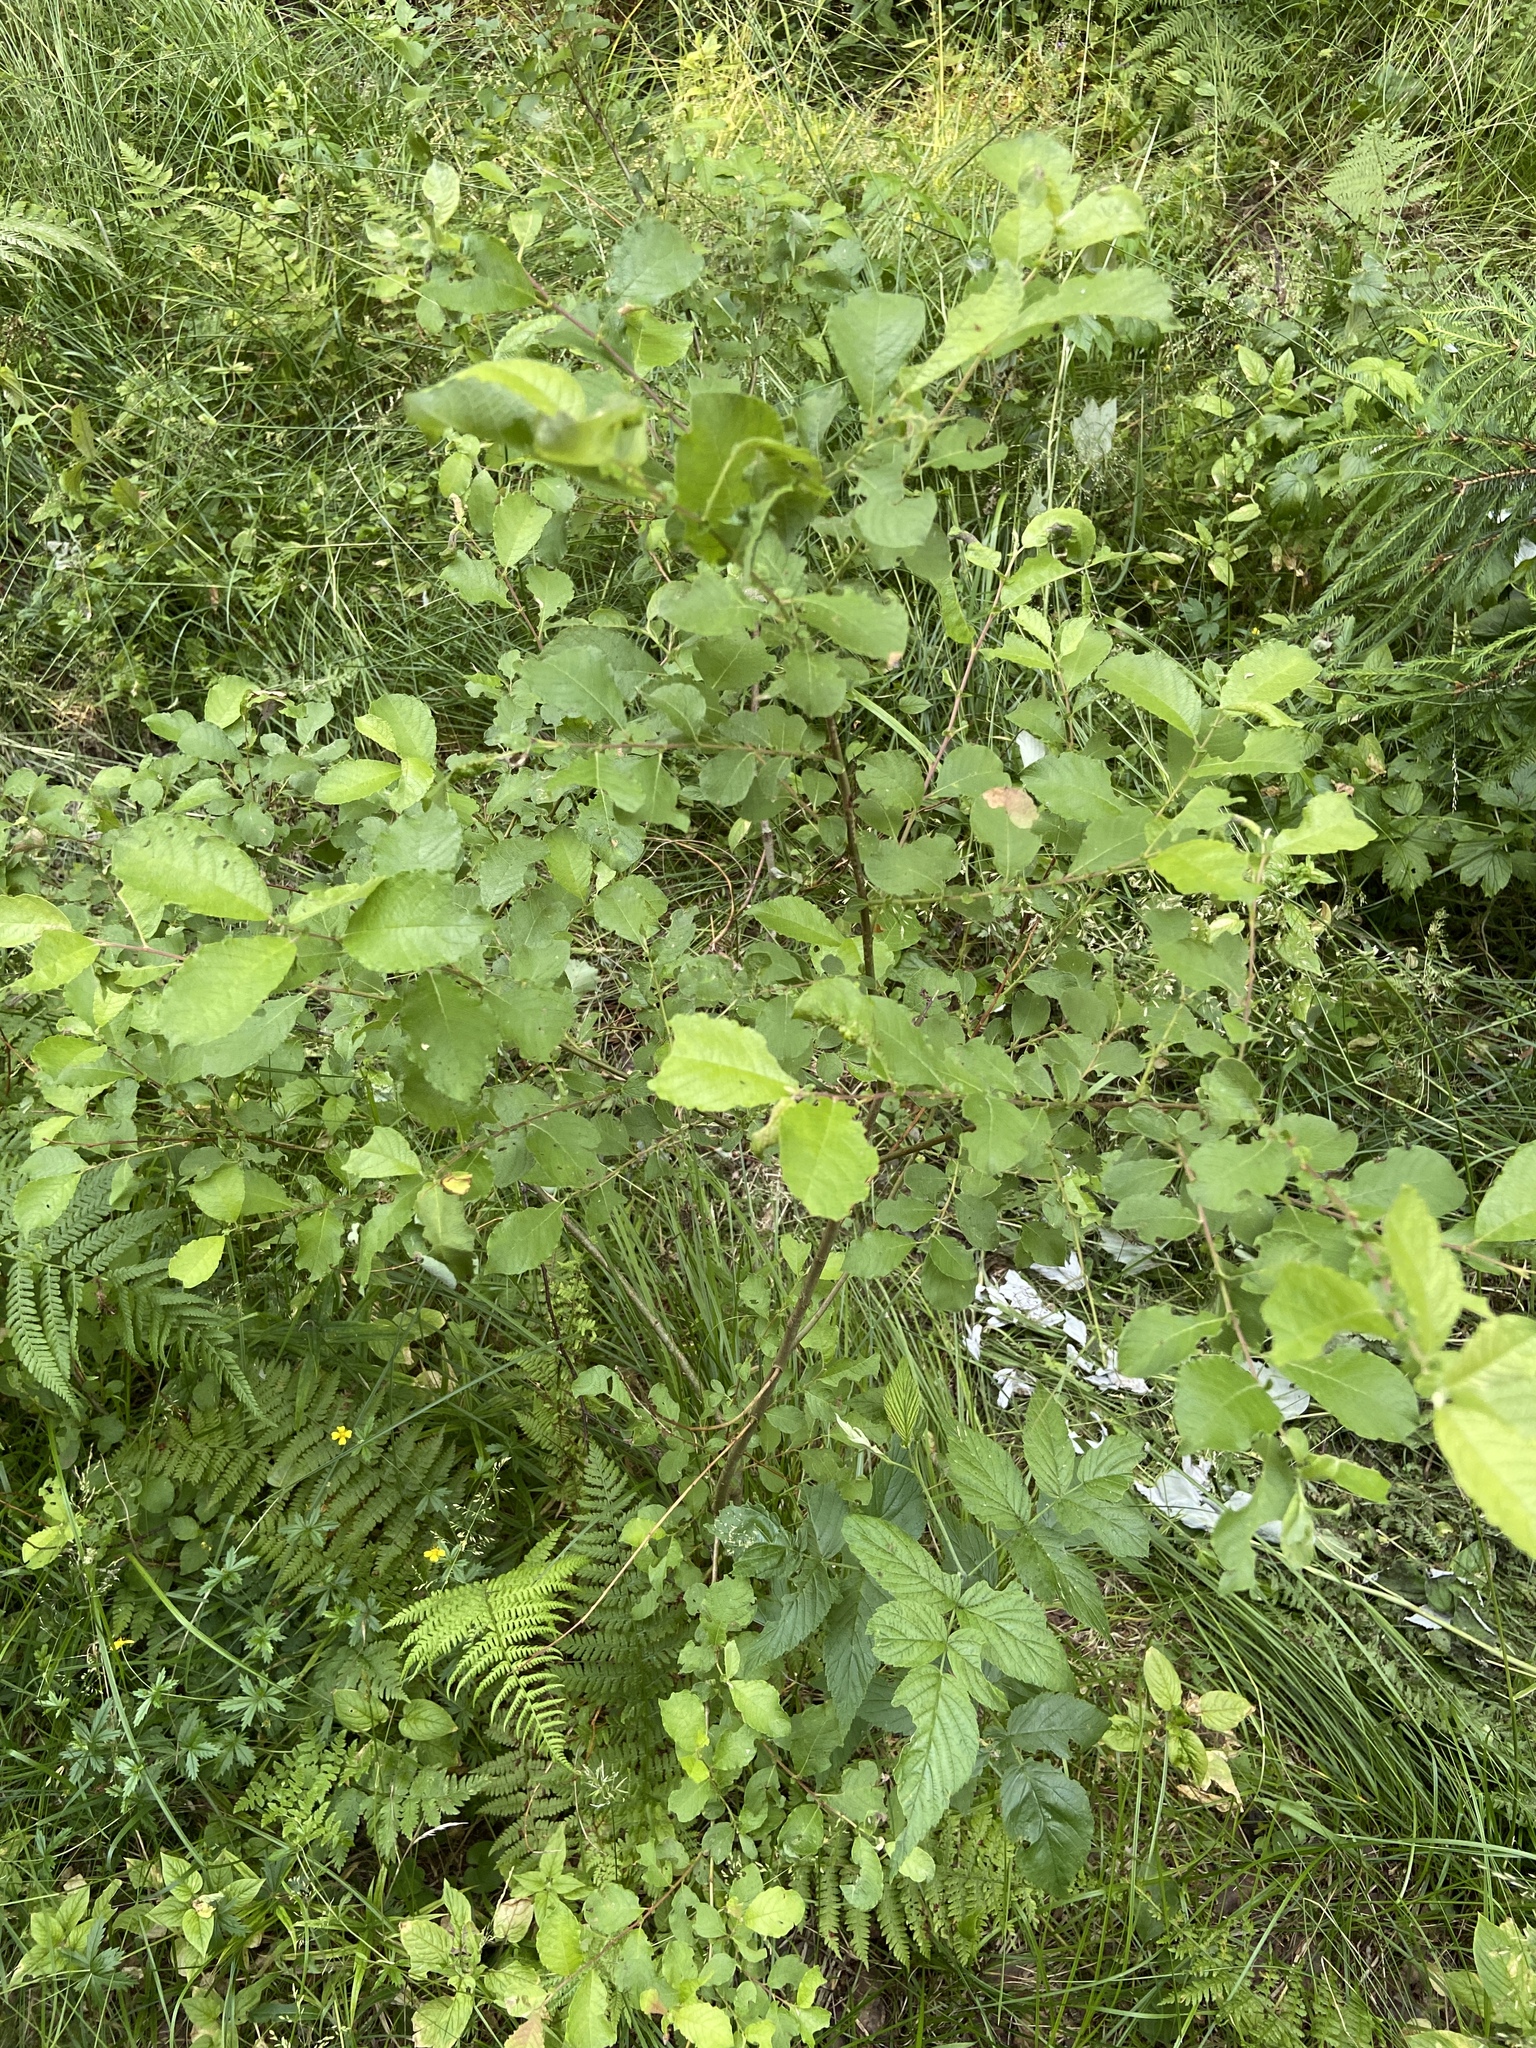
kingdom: Plantae
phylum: Tracheophyta
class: Magnoliopsida
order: Malpighiales
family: Salicaceae
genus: Salix
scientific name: Salix aurita
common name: Eared willow
